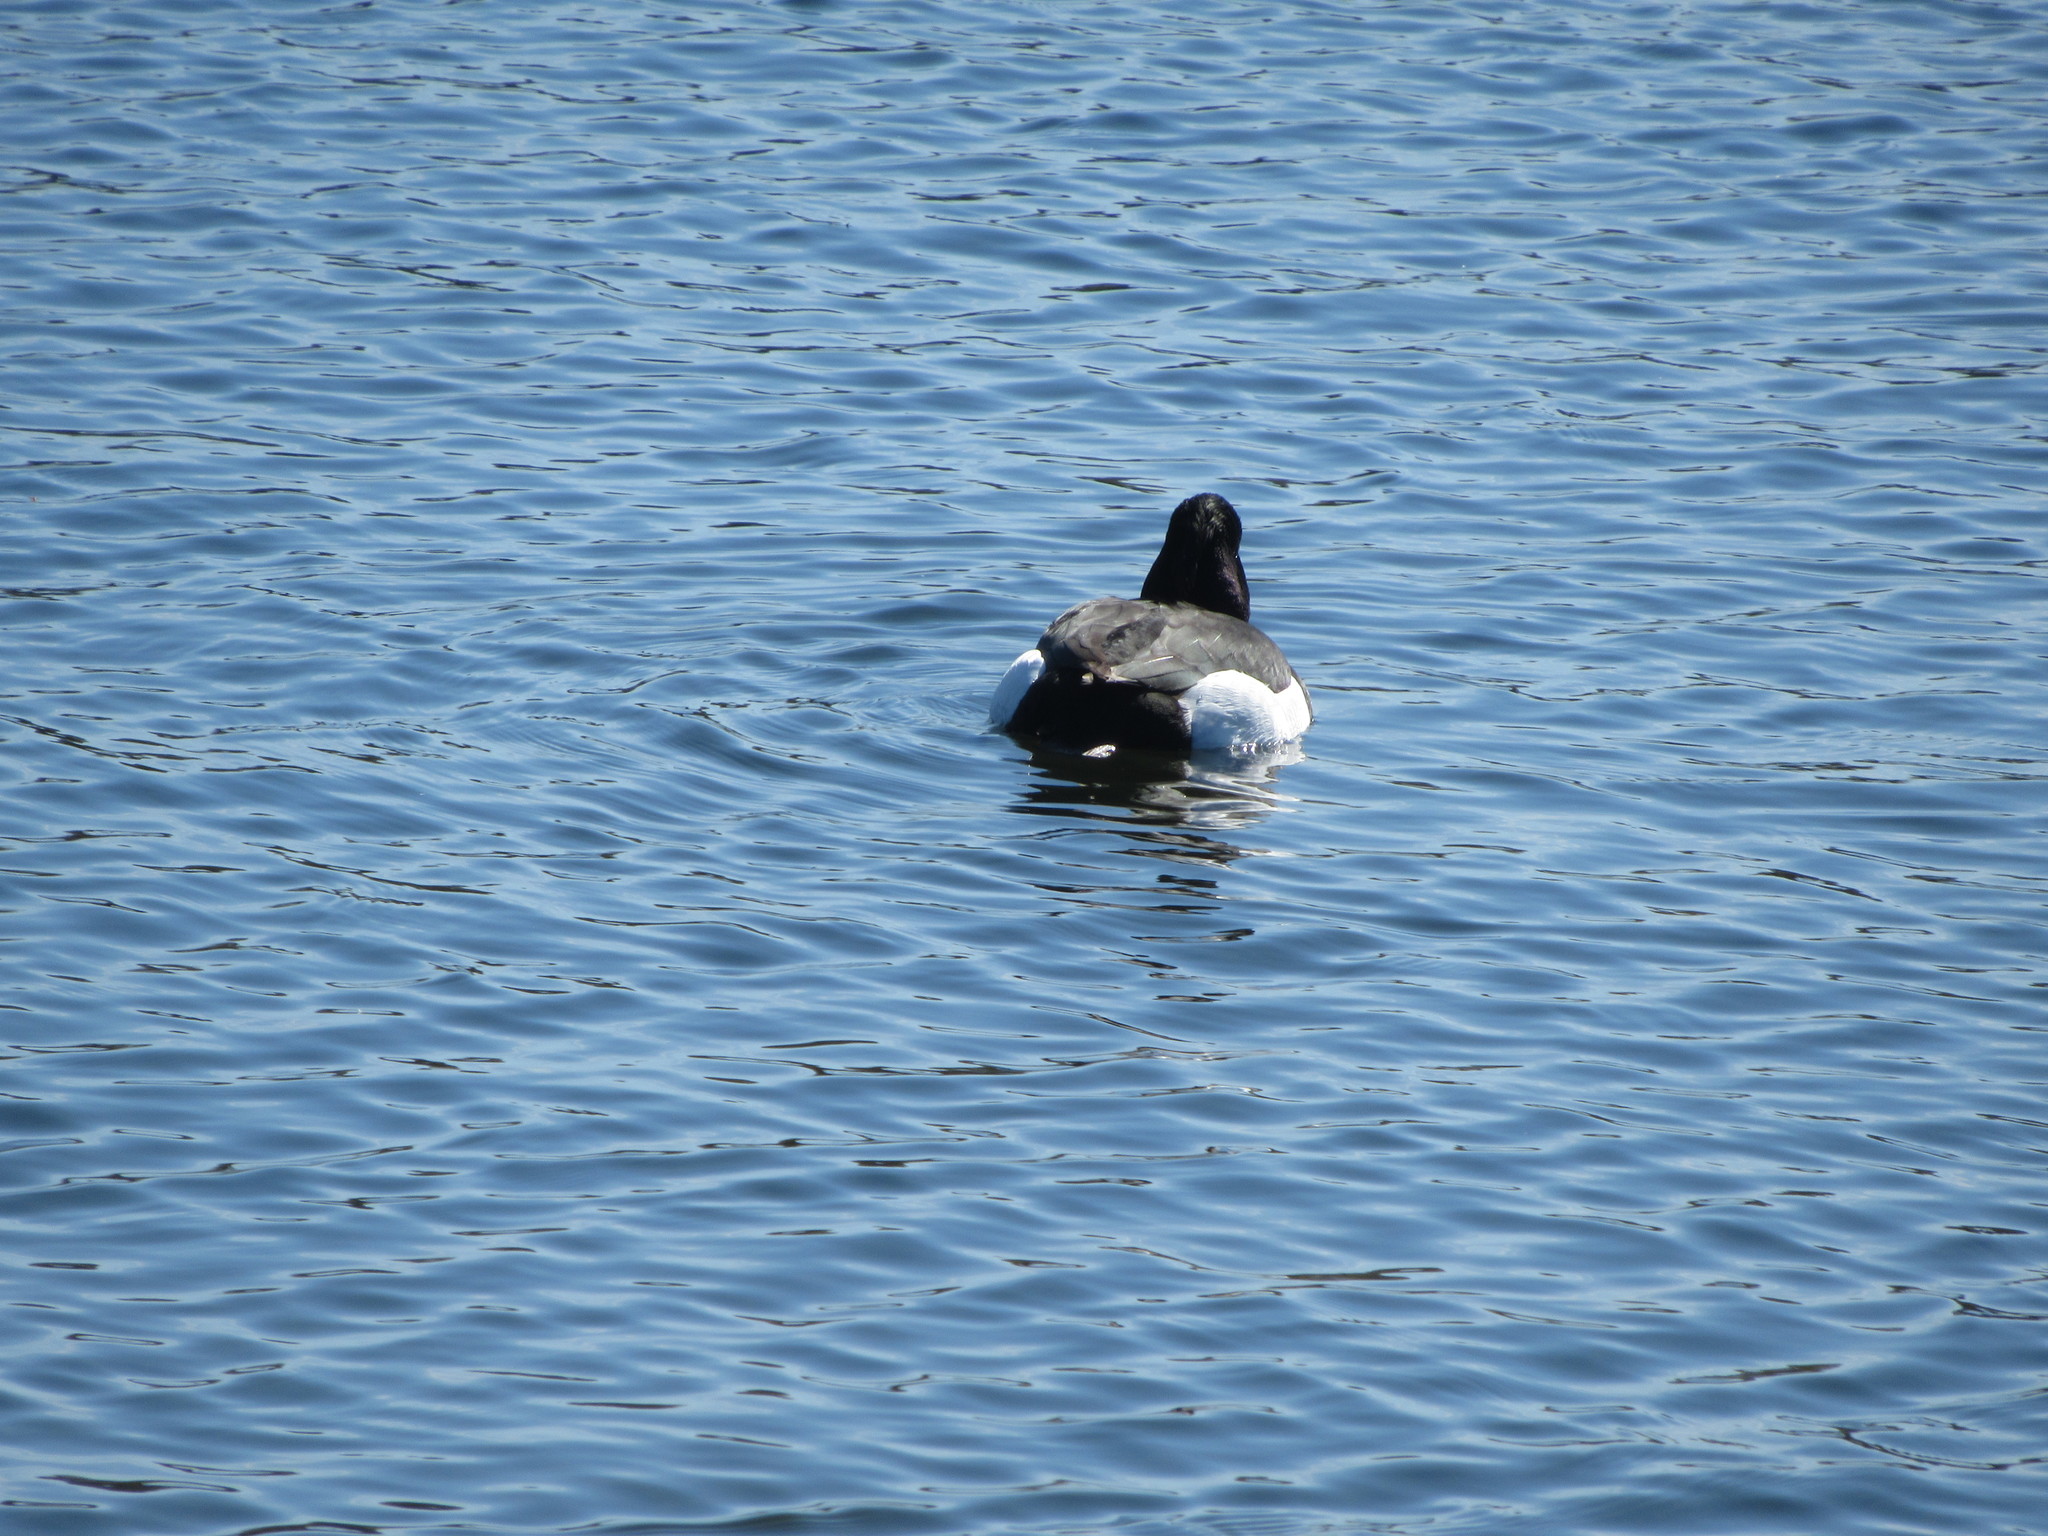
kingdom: Animalia
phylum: Chordata
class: Aves
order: Anseriformes
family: Anatidae
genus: Aythya
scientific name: Aythya fuligula
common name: Tufted duck
